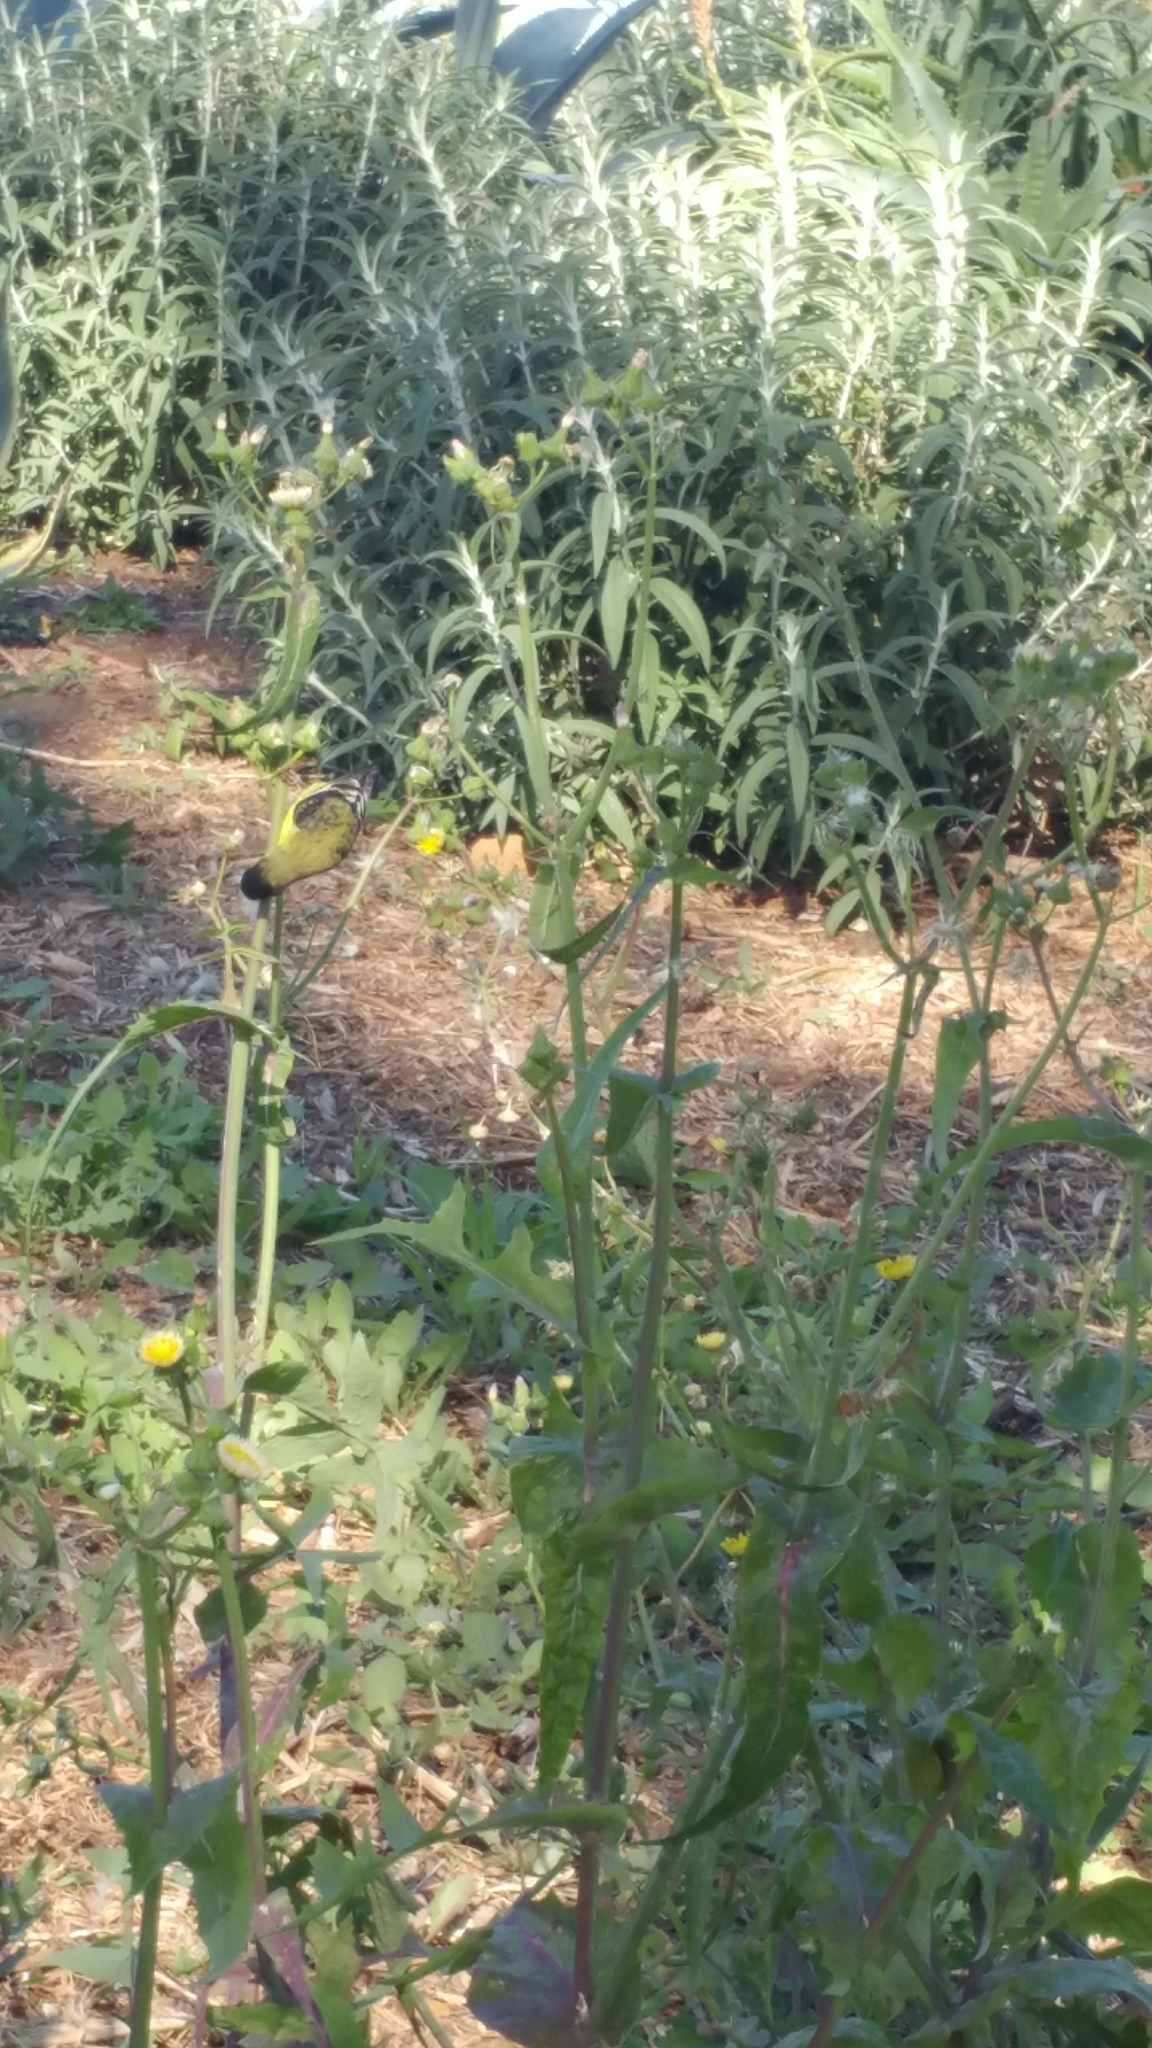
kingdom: Animalia
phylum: Chordata
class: Aves
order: Passeriformes
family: Fringillidae
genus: Spinus
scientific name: Spinus psaltria
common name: Lesser goldfinch
